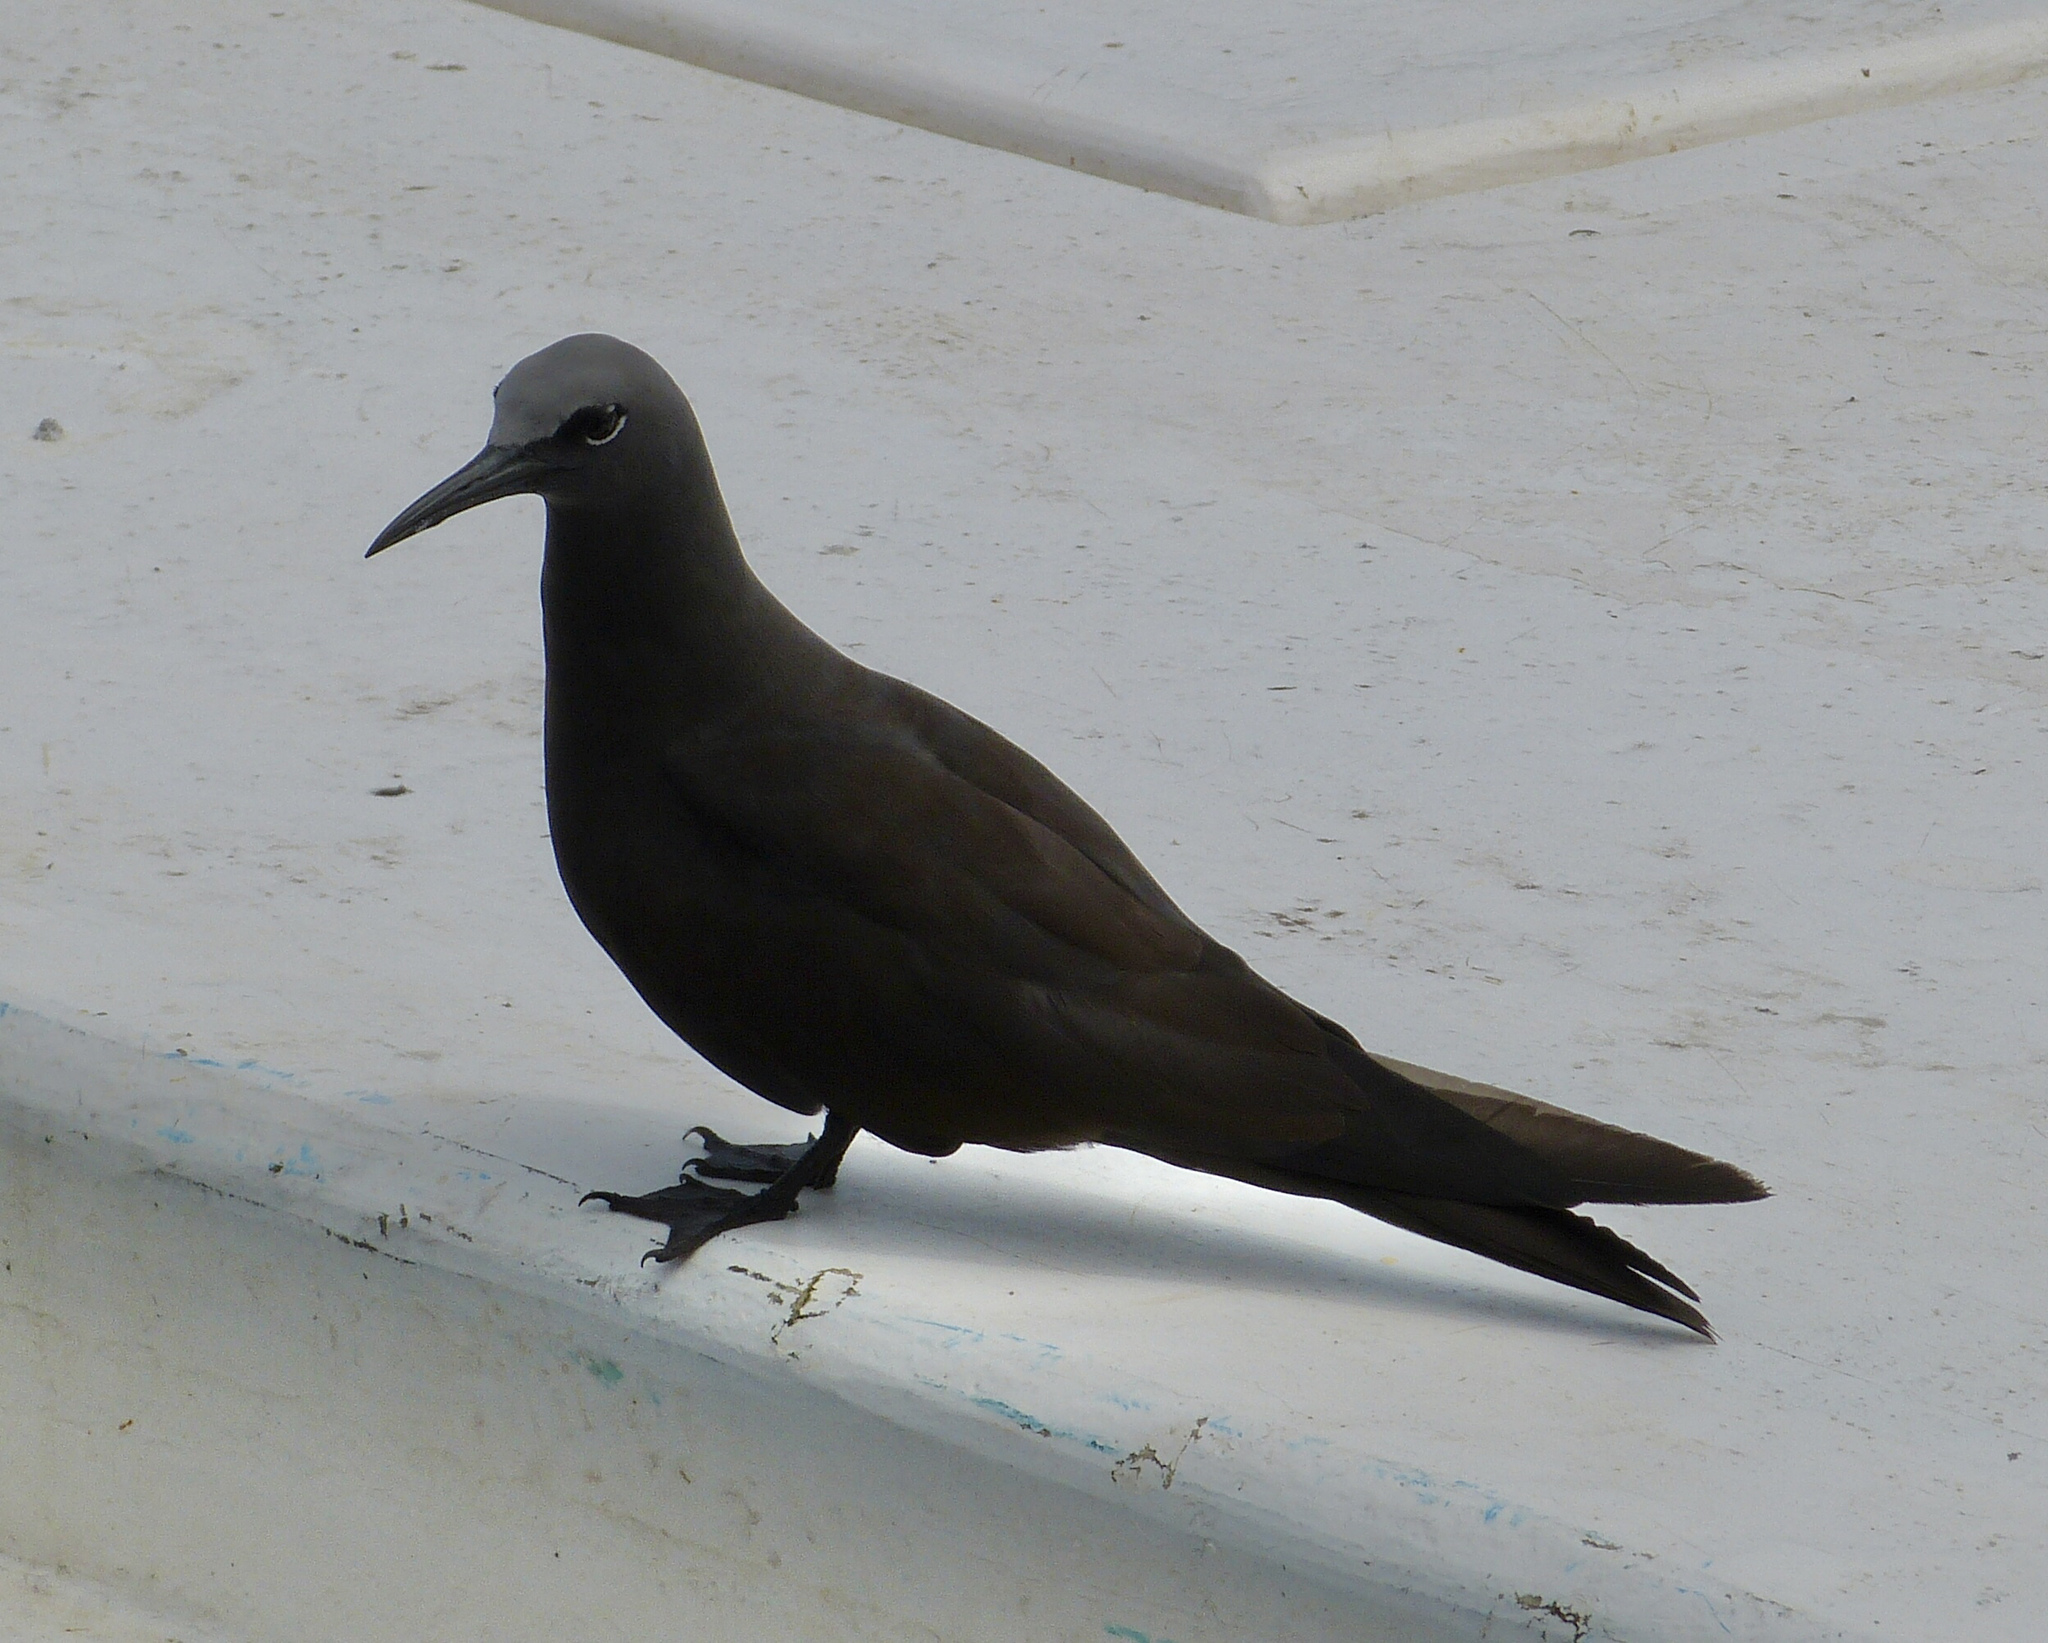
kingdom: Animalia
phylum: Chordata
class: Aves
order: Charadriiformes
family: Laridae
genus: Anous
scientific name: Anous stolidus
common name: Brown noddy
